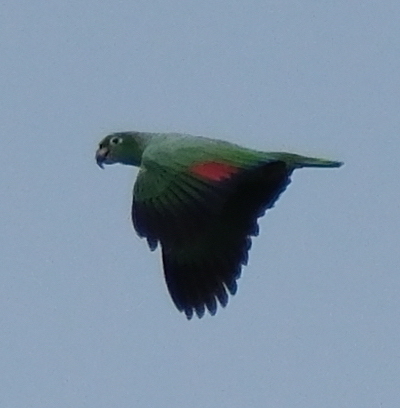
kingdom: Animalia
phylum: Chordata
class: Aves
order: Psittaciformes
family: Psittacidae
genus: Amazona
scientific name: Amazona farinosa
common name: Mealy parrot
